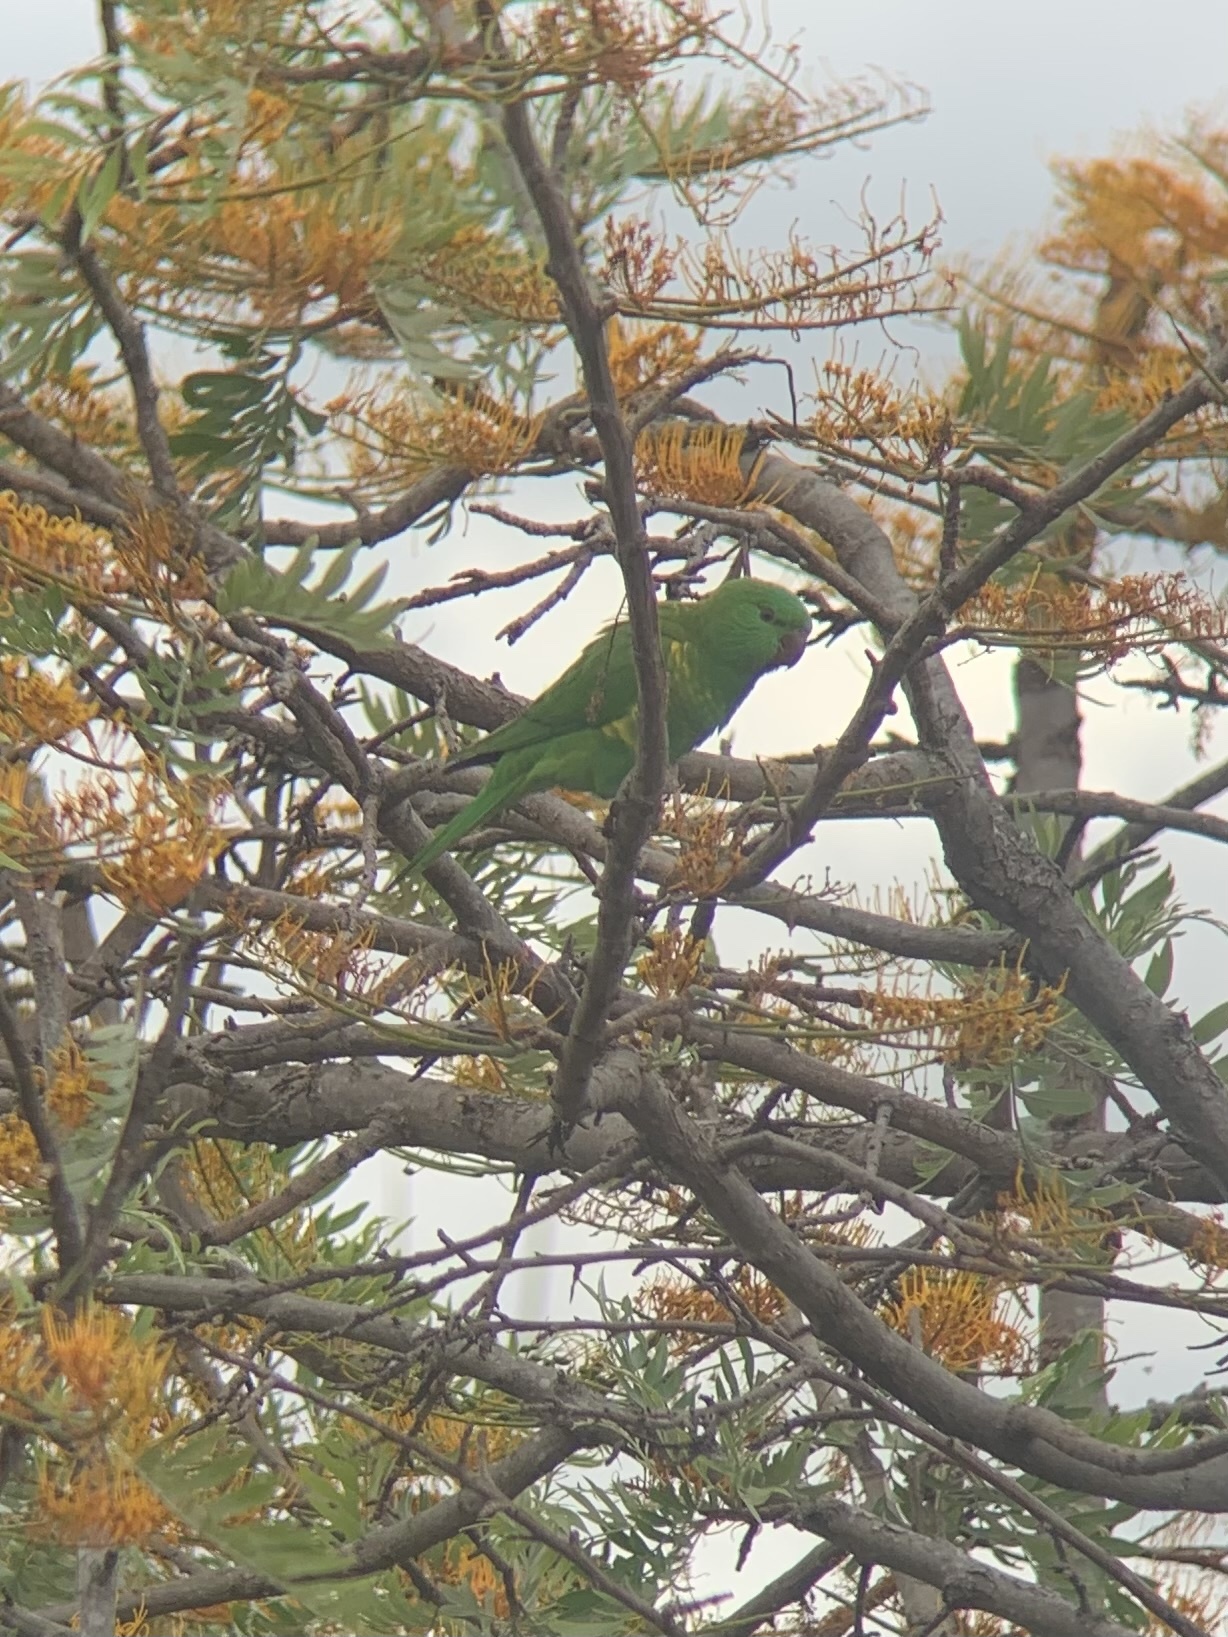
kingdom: Animalia
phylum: Chordata
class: Aves
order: Psittaciformes
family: Psittacidae
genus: Trichoglossus
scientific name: Trichoglossus chlorolepidotus
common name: Scaly-breasted lorikeet
